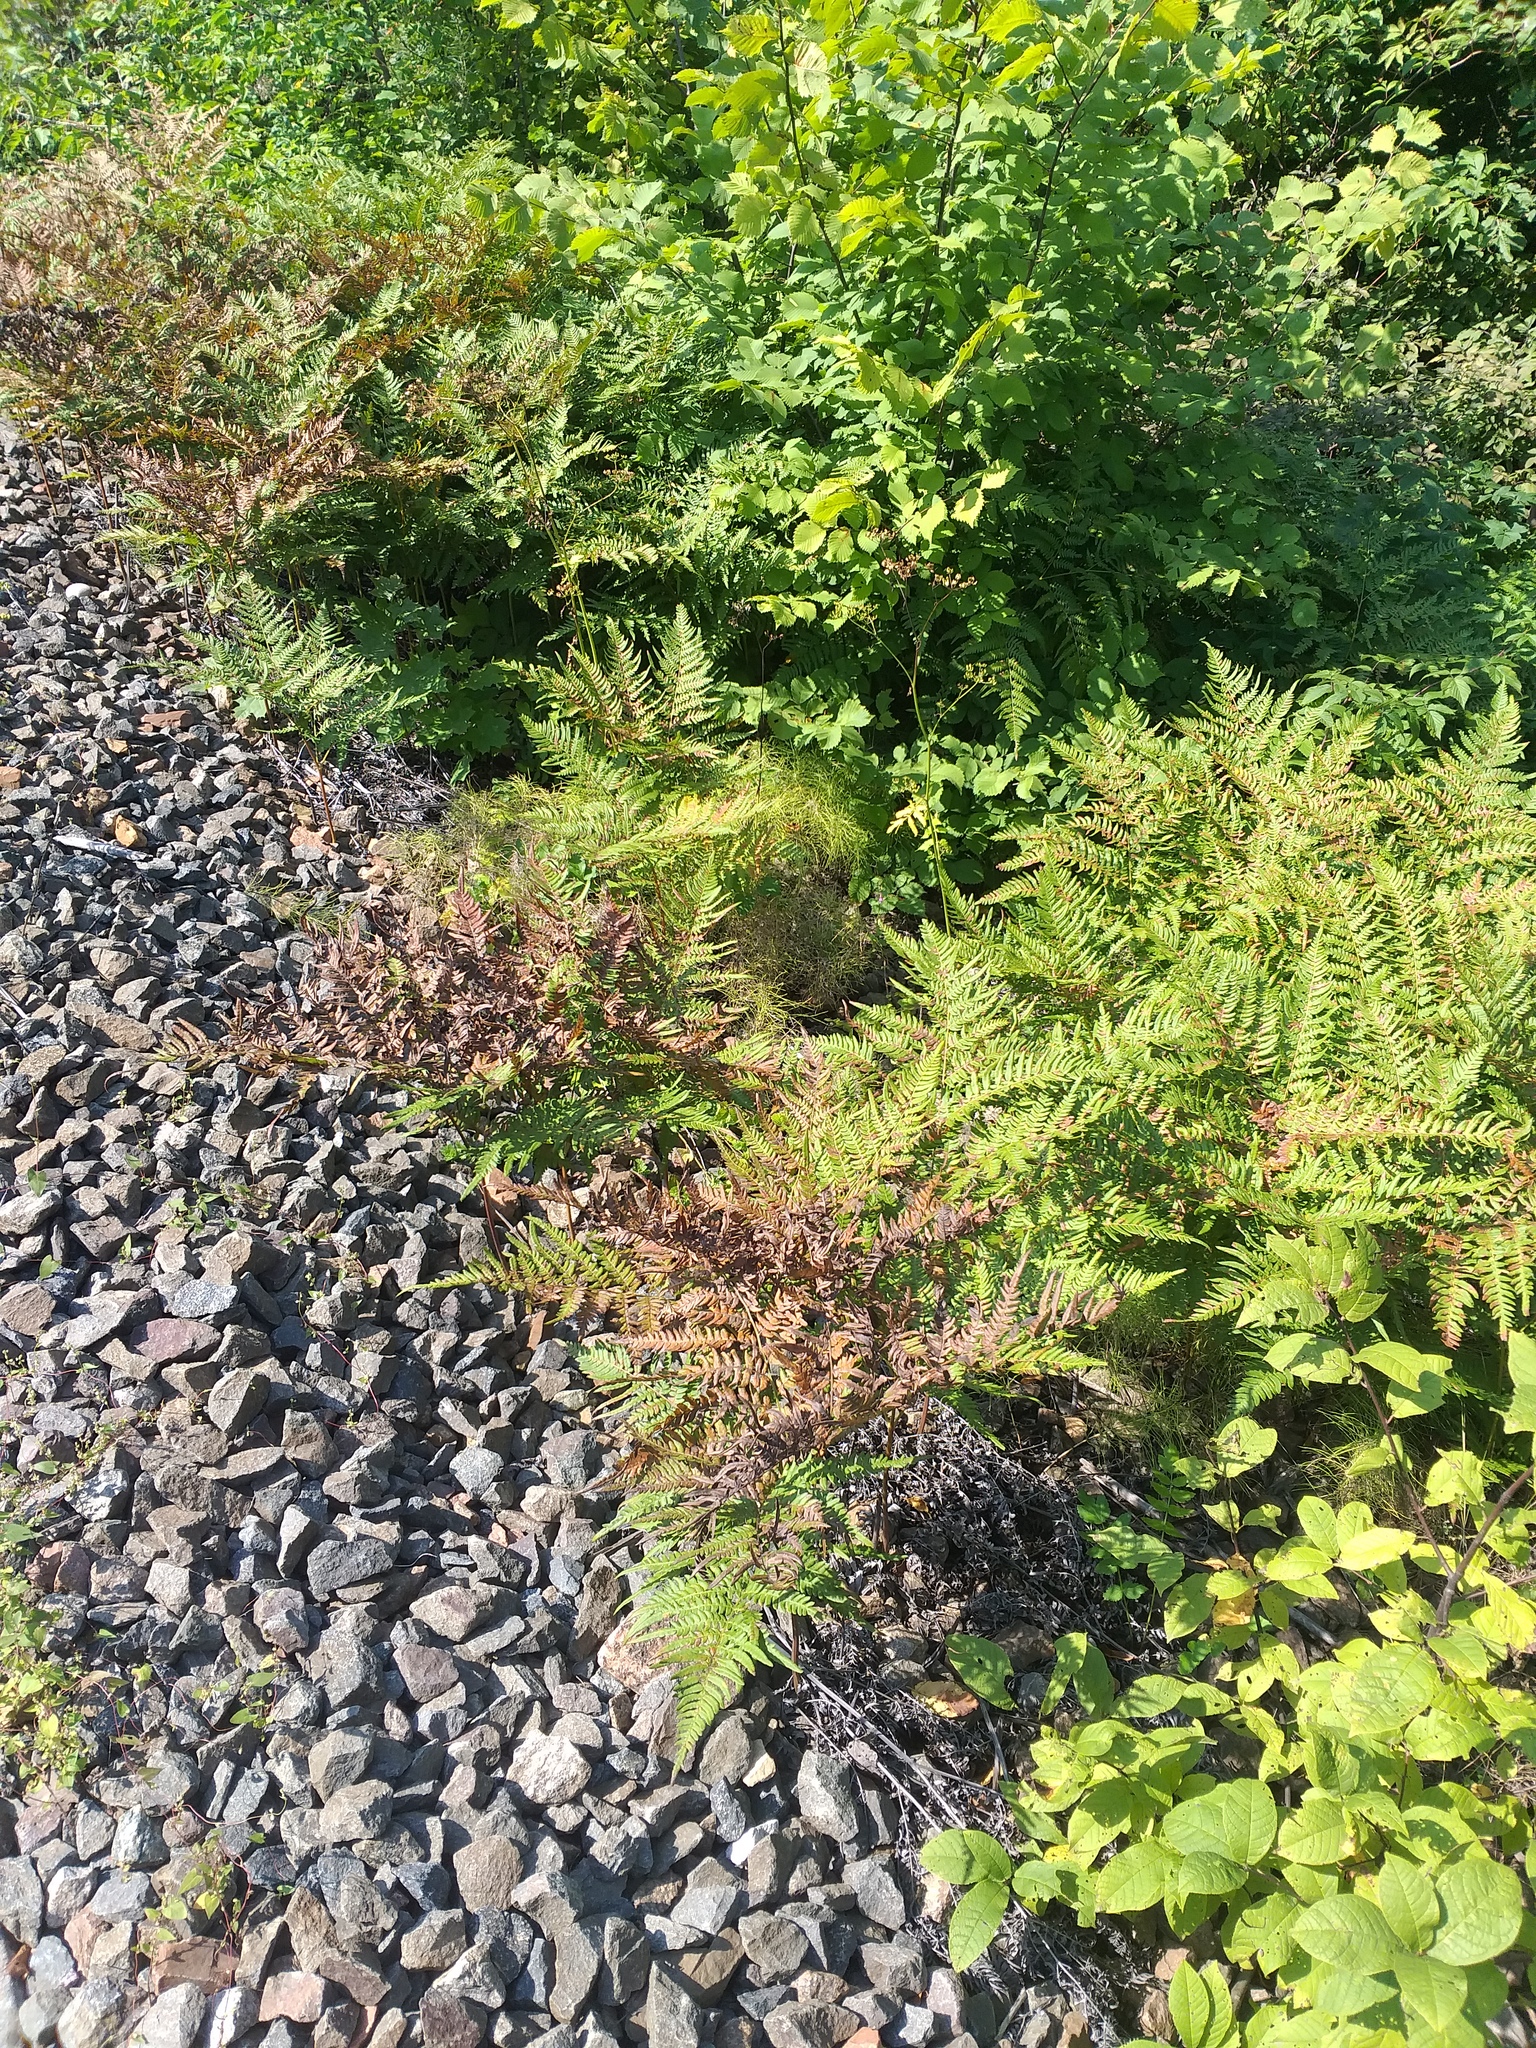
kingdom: Plantae
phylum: Tracheophyta
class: Polypodiopsida
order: Polypodiales
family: Dennstaedtiaceae
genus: Pteridium
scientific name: Pteridium aquilinum
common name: Bracken
